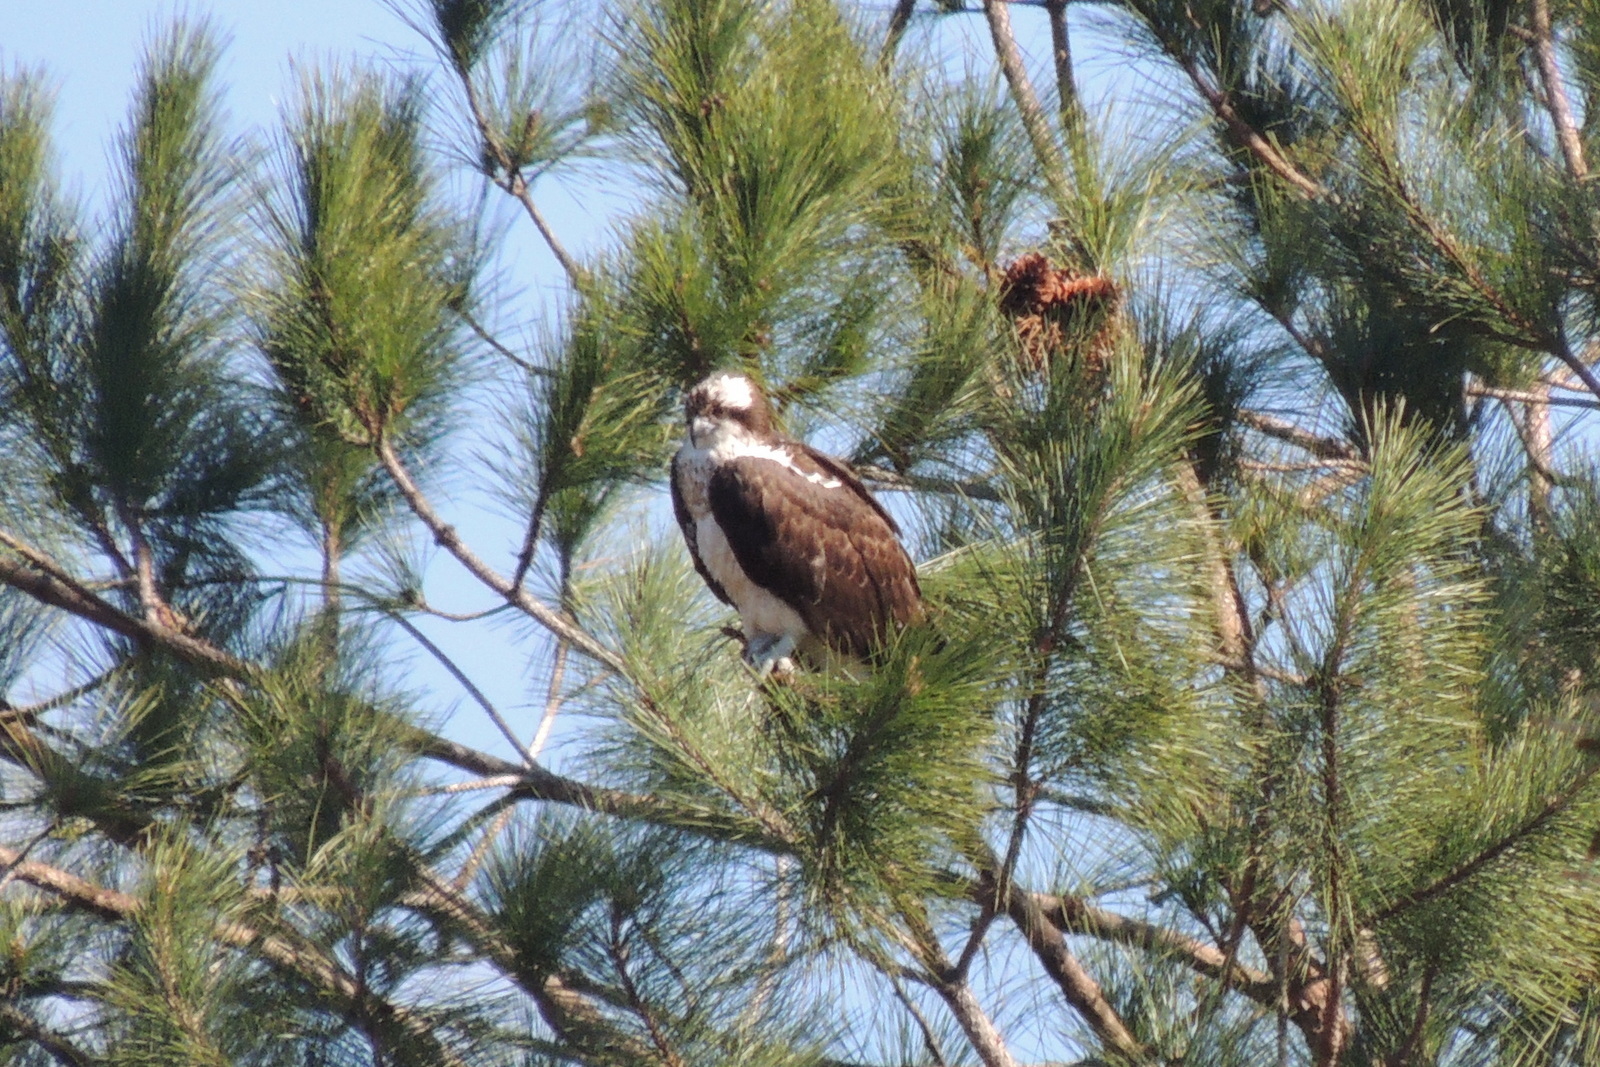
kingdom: Animalia
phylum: Chordata
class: Aves
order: Accipitriformes
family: Pandionidae
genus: Pandion
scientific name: Pandion haliaetus
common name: Osprey
